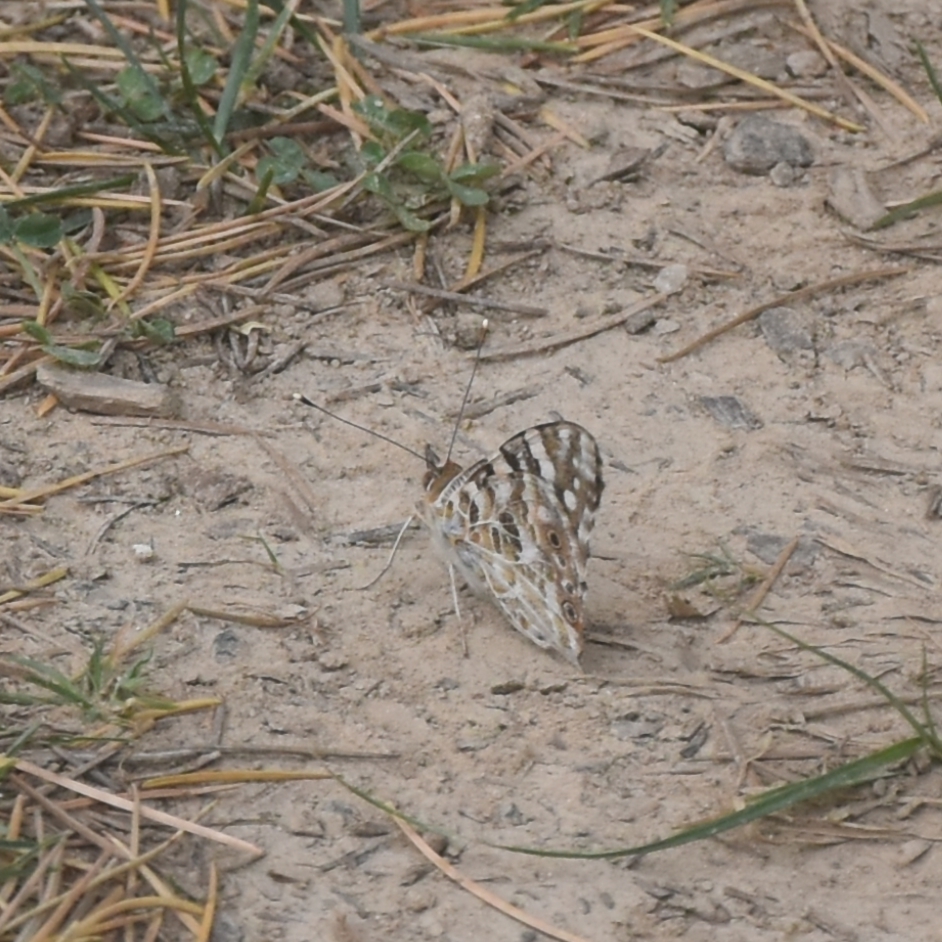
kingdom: Animalia
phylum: Arthropoda
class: Insecta
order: Lepidoptera
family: Nymphalidae
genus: Vanessa
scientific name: Vanessa cardui
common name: Painted lady
